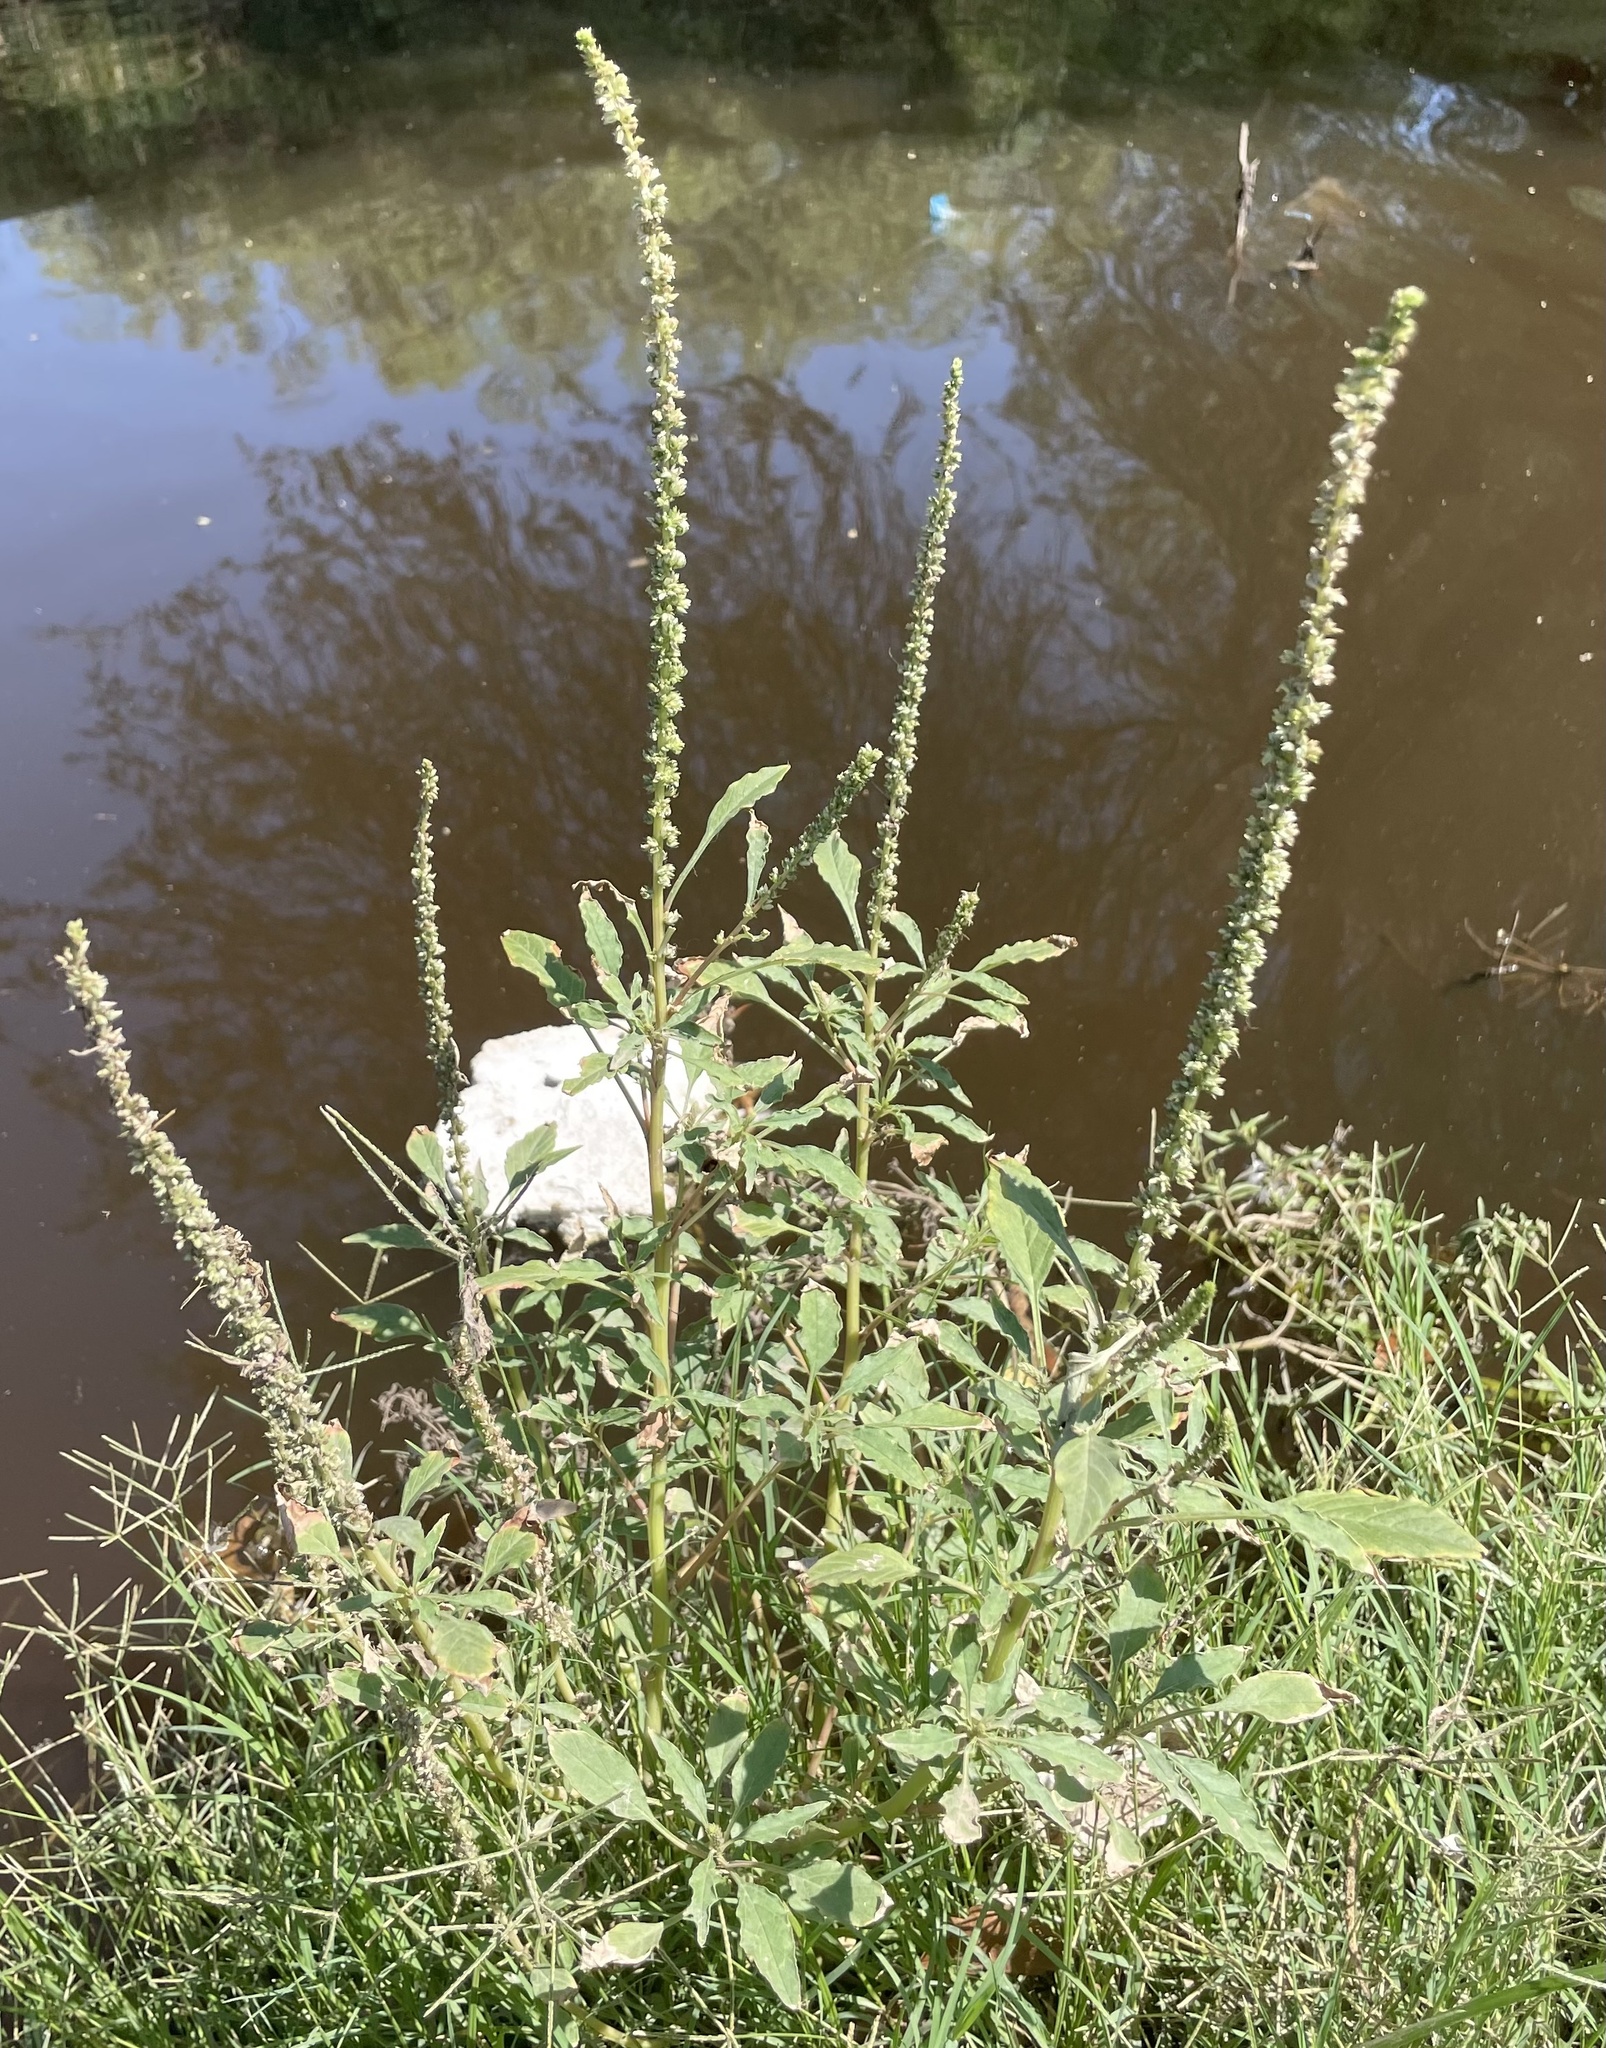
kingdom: Plantae
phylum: Tracheophyta
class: Magnoliopsida
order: Caryophyllales
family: Amaranthaceae
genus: Amaranthus
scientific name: Amaranthus palmeri
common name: Dioecious amaranth
